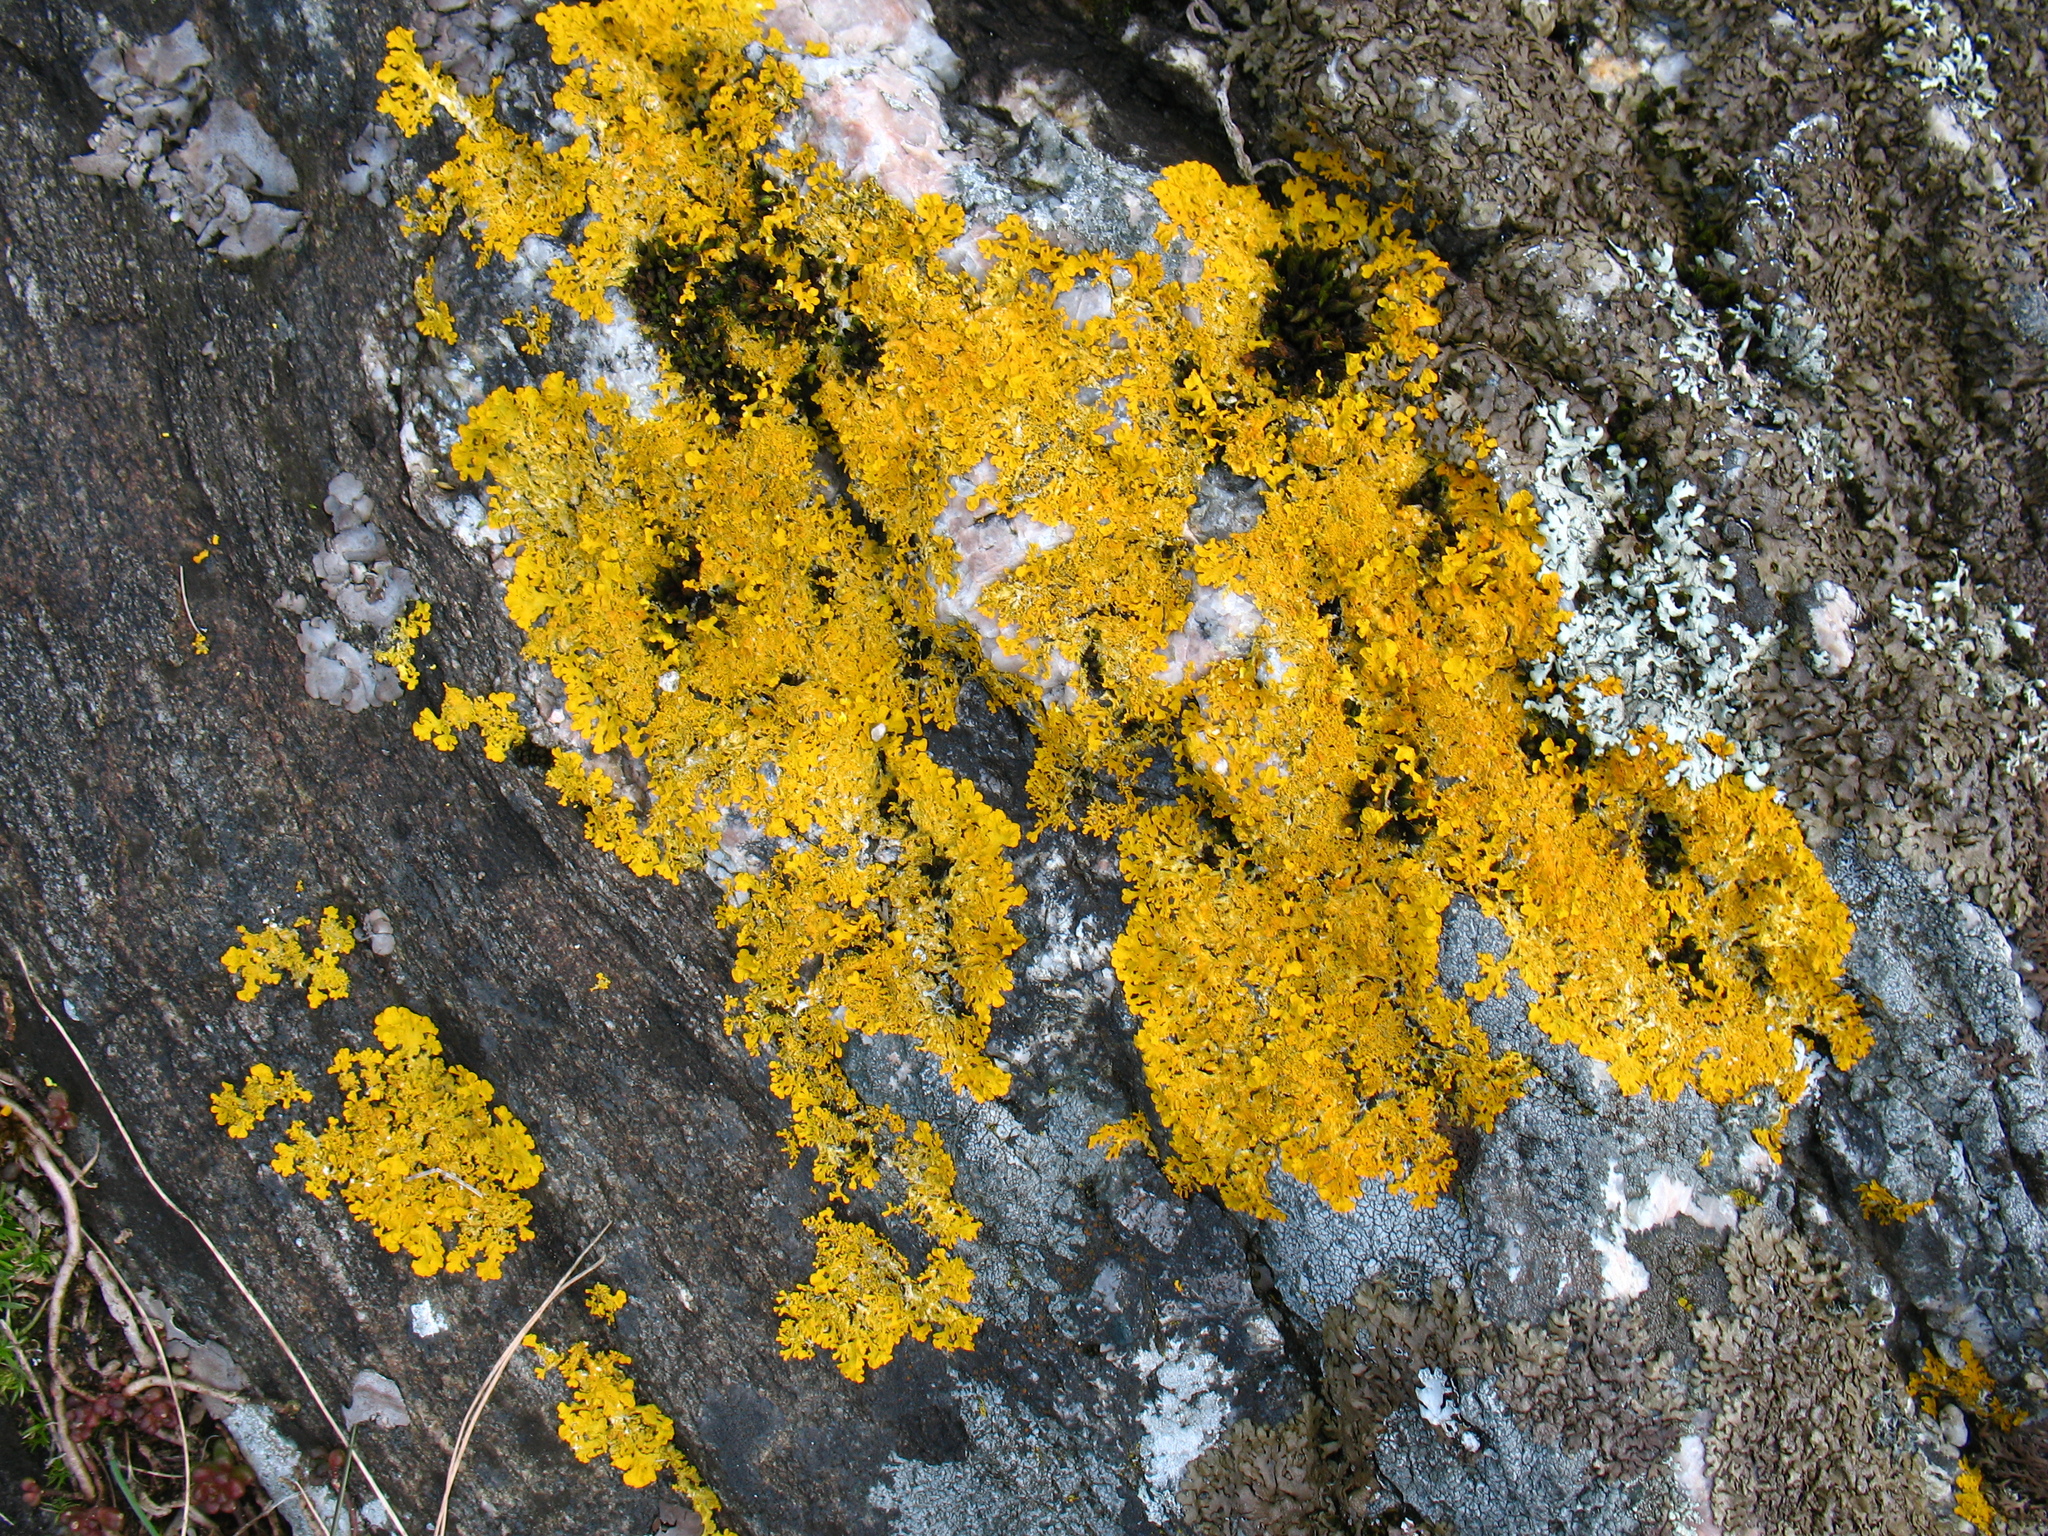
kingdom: Fungi
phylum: Ascomycota
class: Lecanoromycetes
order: Teloschistales
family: Teloschistaceae
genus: Xanthoria
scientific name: Xanthoria aureola
